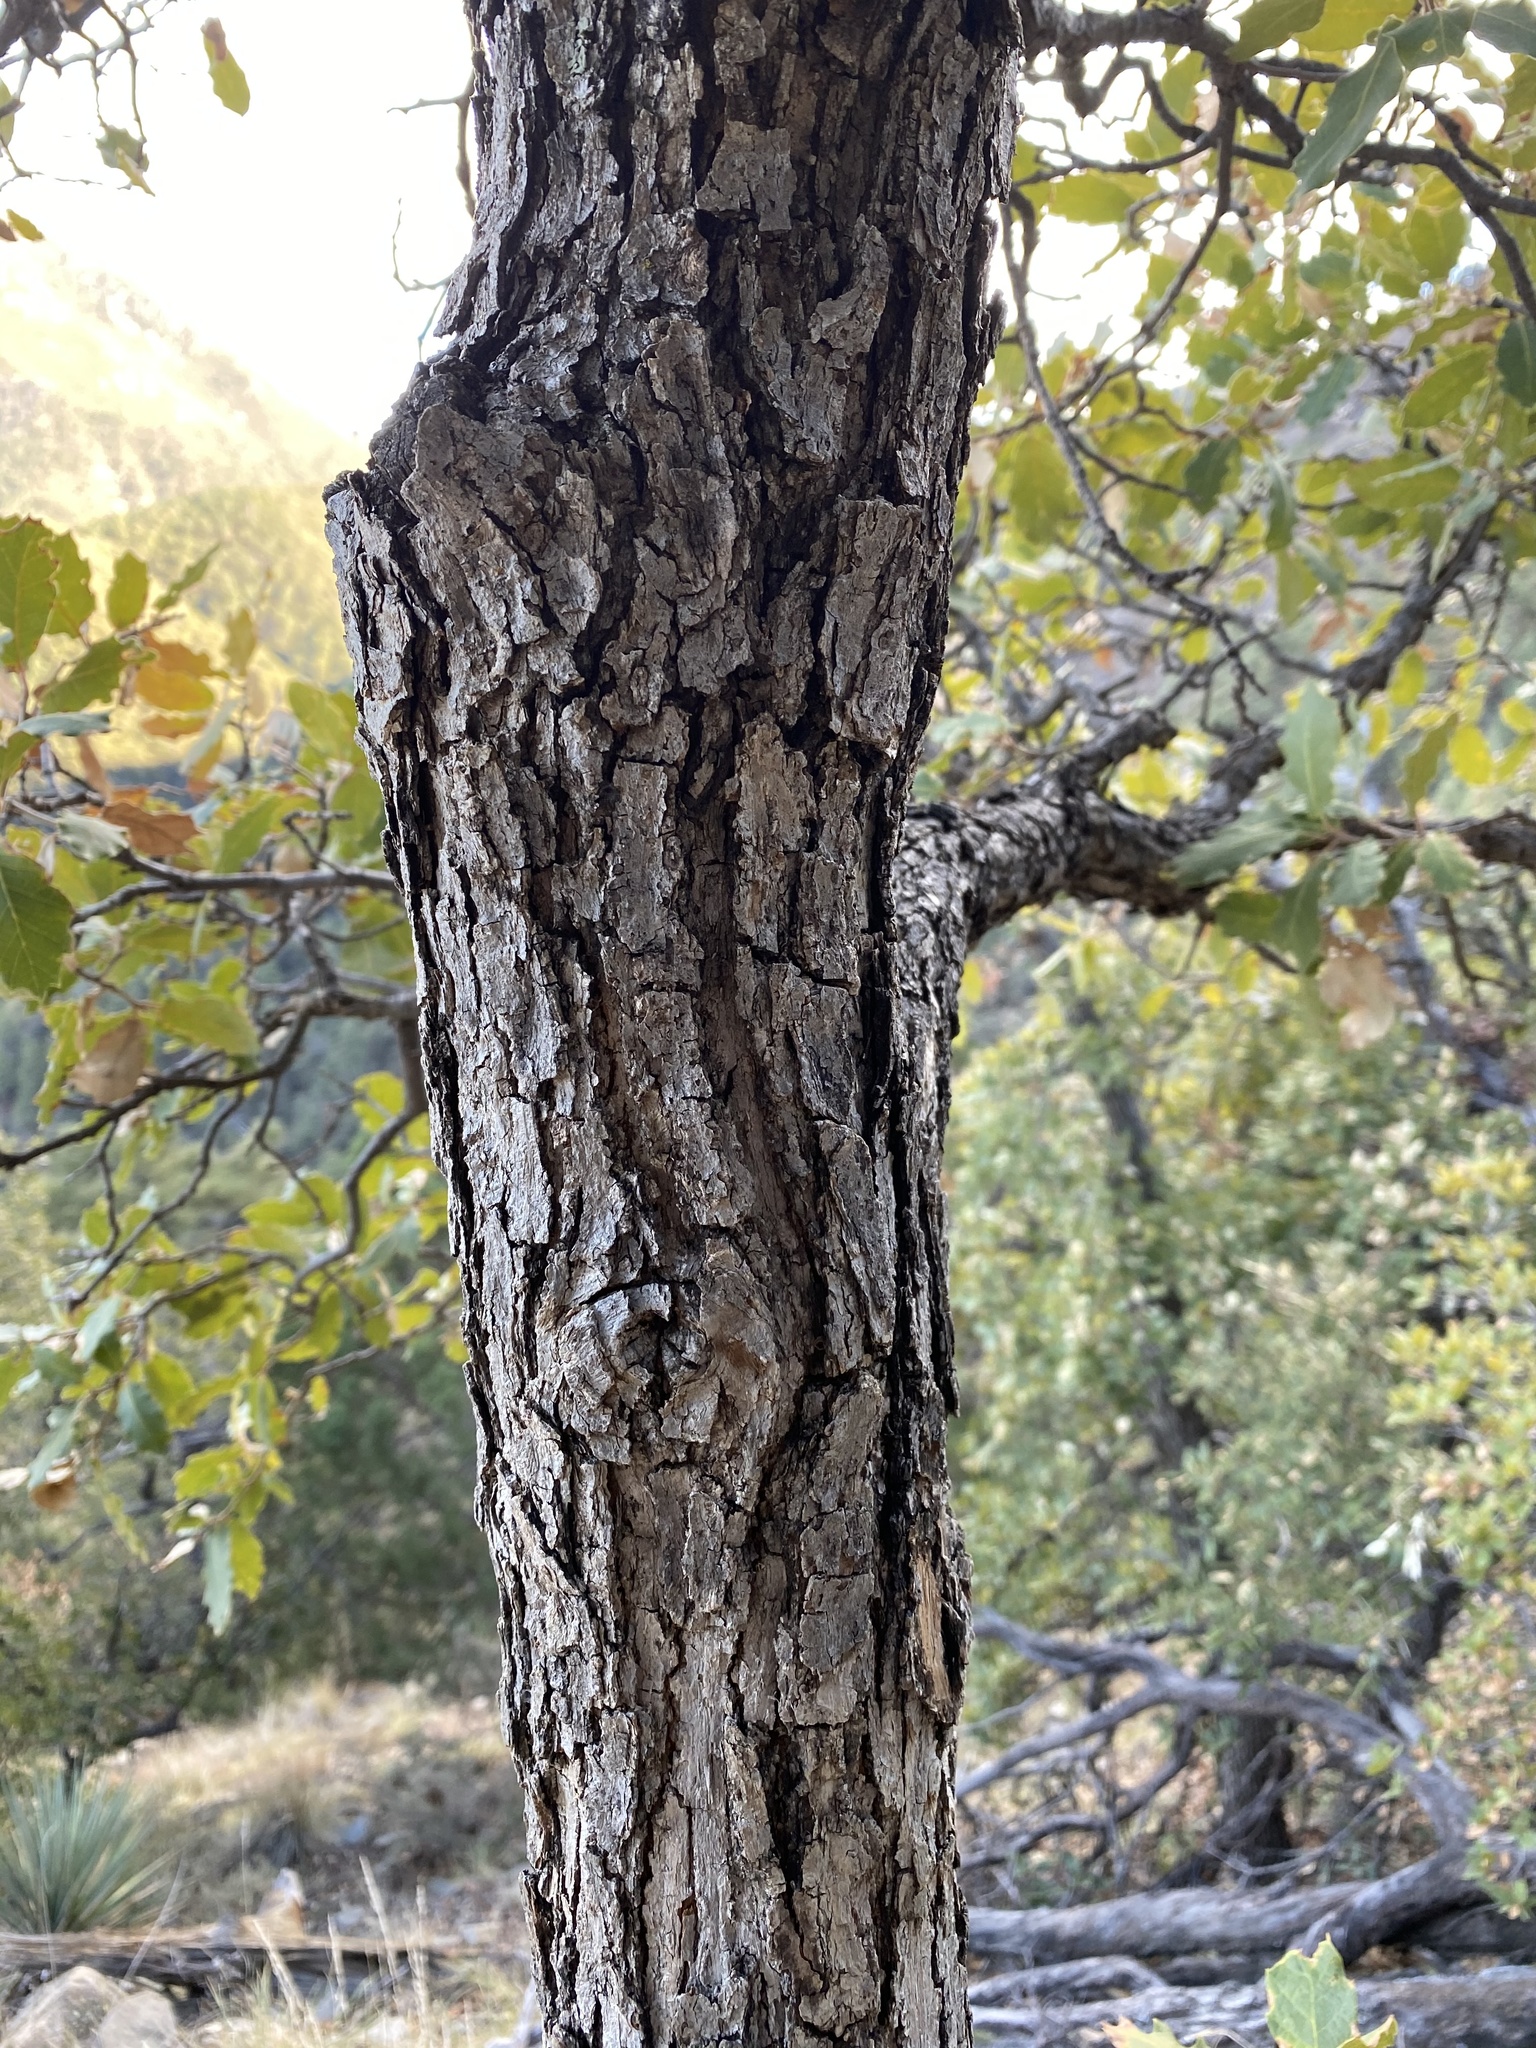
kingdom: Plantae
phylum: Tracheophyta
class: Magnoliopsida
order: Fagales
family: Fagaceae
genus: Quercus
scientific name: Quercus arizonica
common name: Arizona white oak
